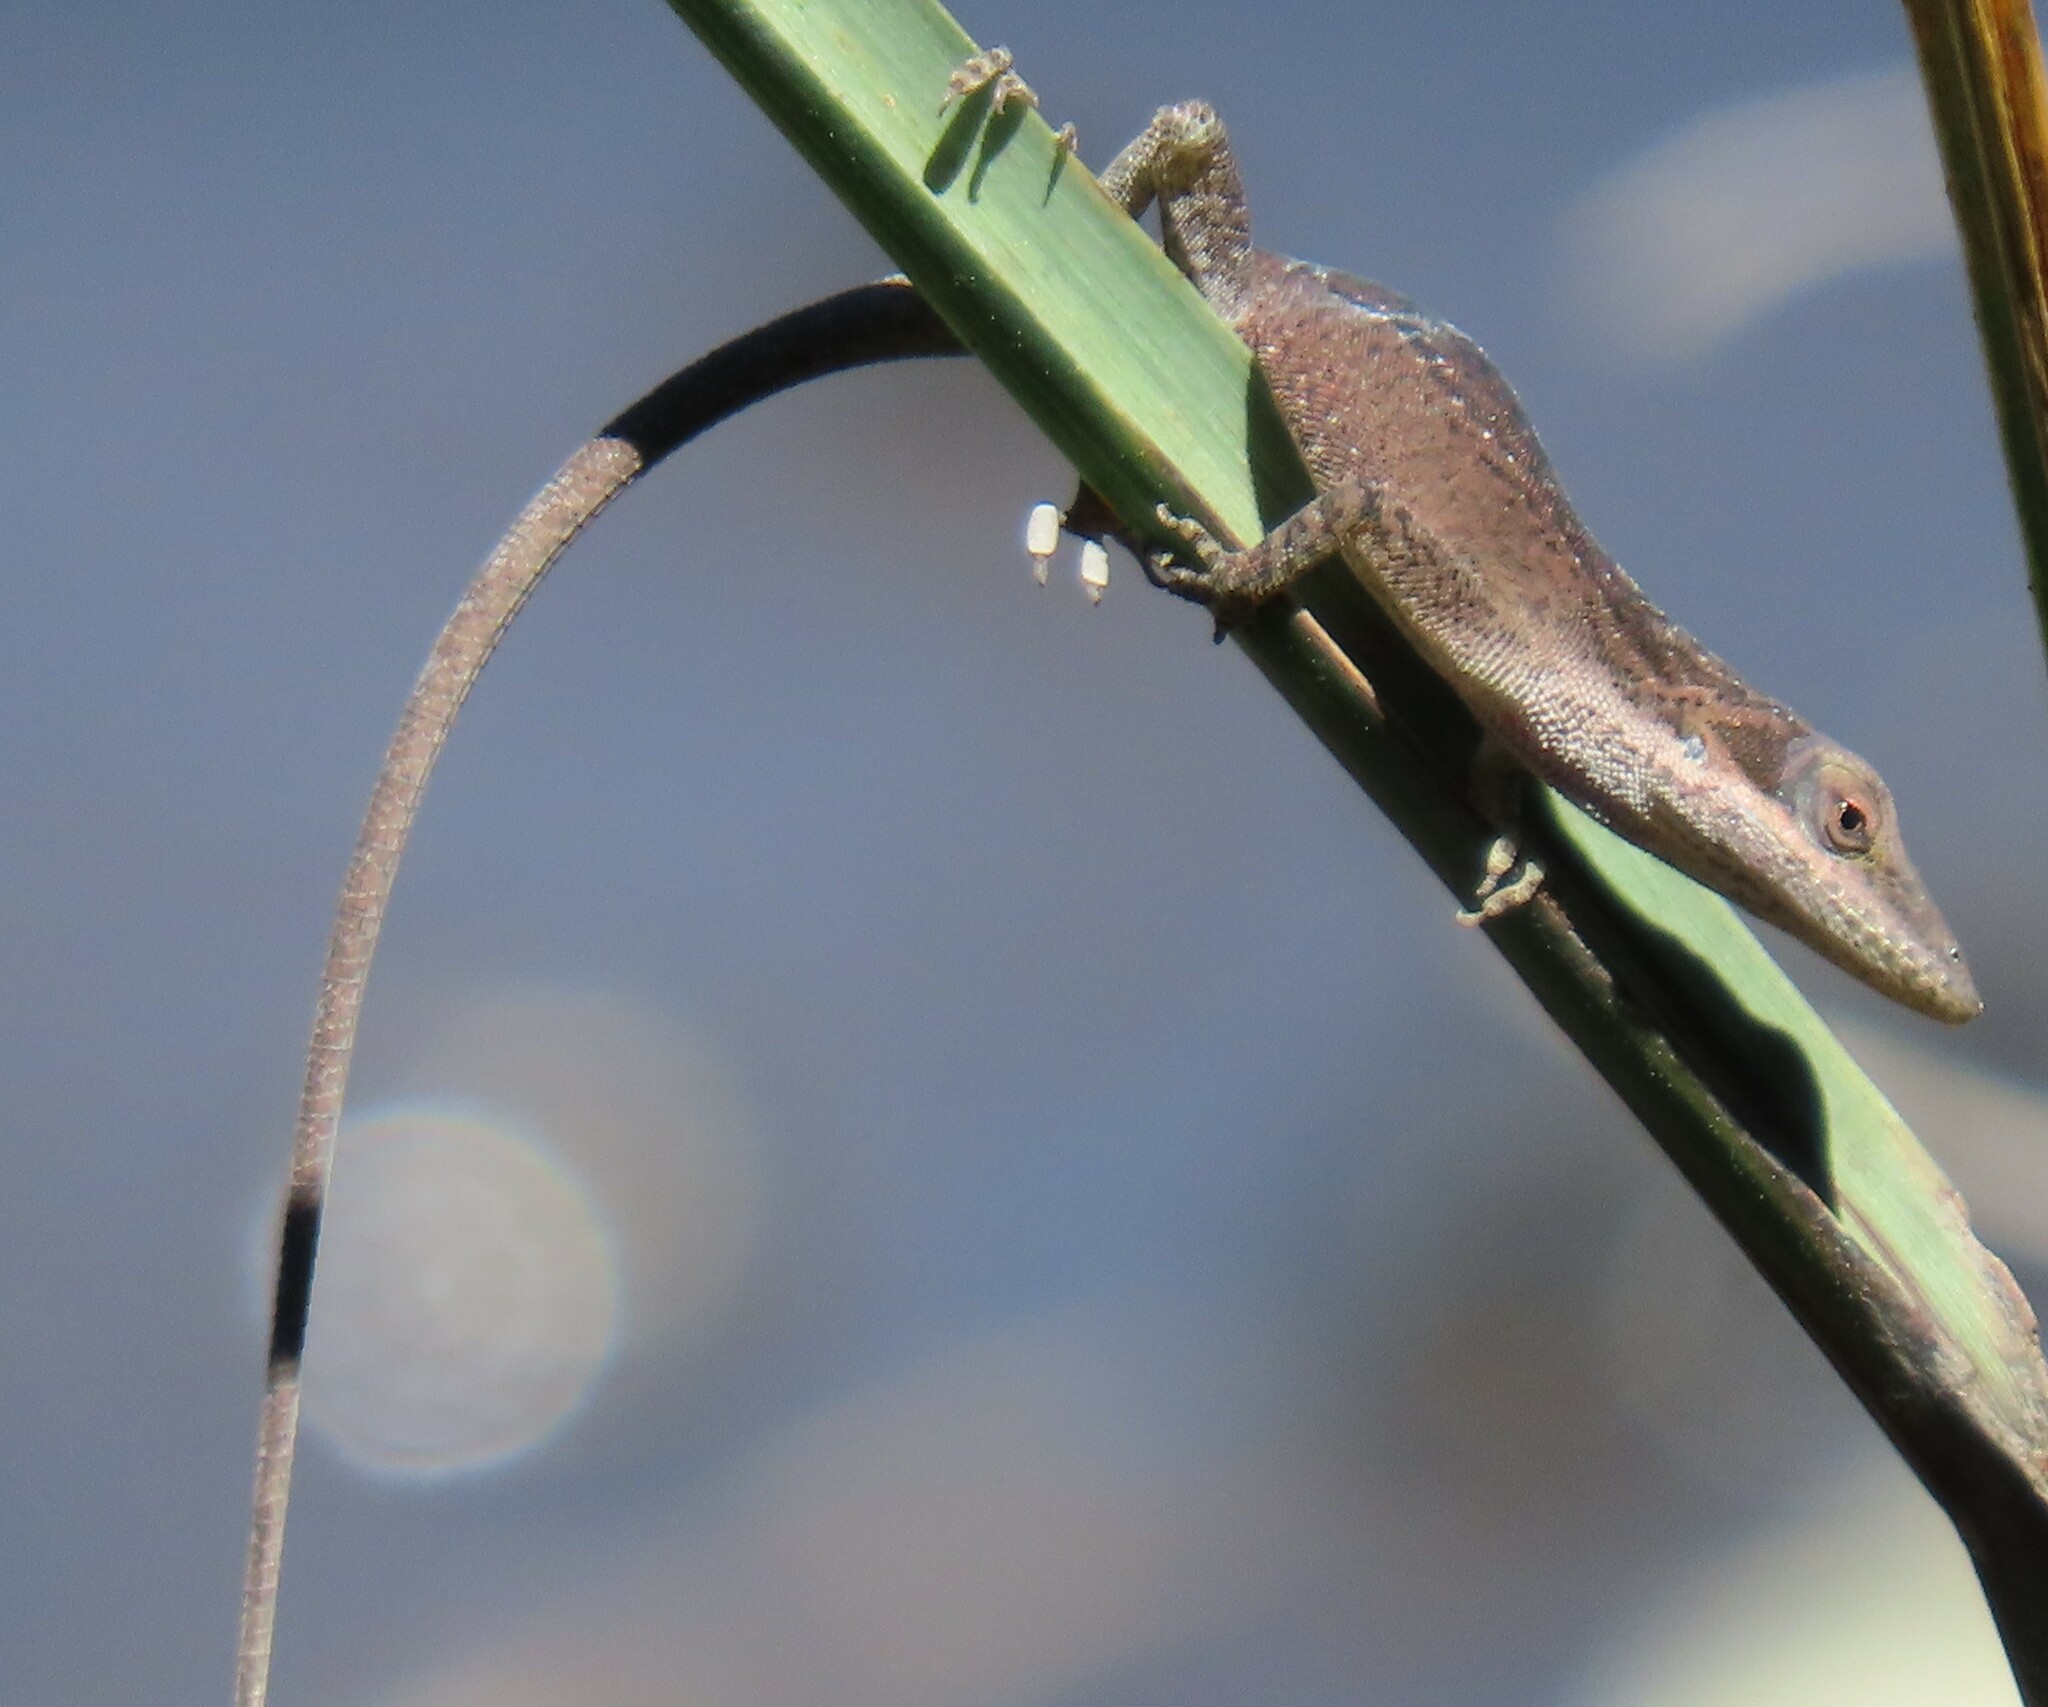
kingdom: Animalia
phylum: Chordata
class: Squamata
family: Dactyloidae
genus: Anolis
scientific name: Anolis carolinensis
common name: Green anole
